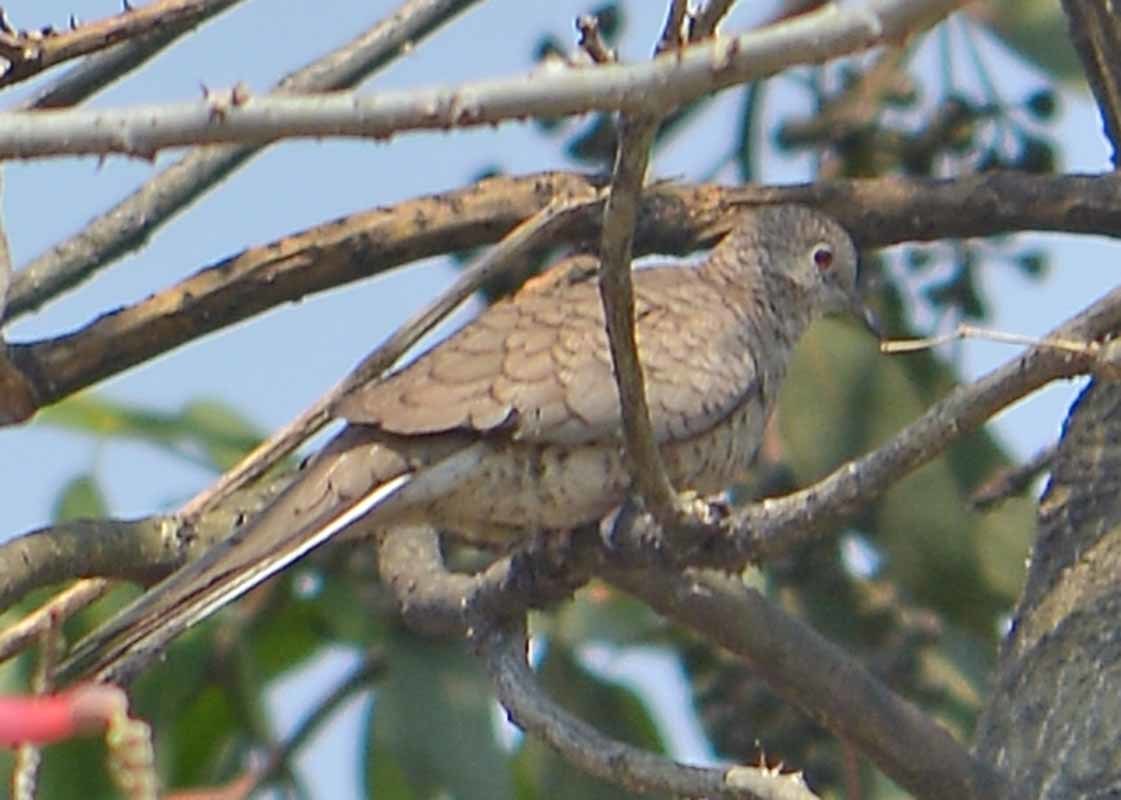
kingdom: Animalia
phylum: Chordata
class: Aves
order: Columbiformes
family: Columbidae
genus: Columbina
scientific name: Columbina inca
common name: Inca dove
